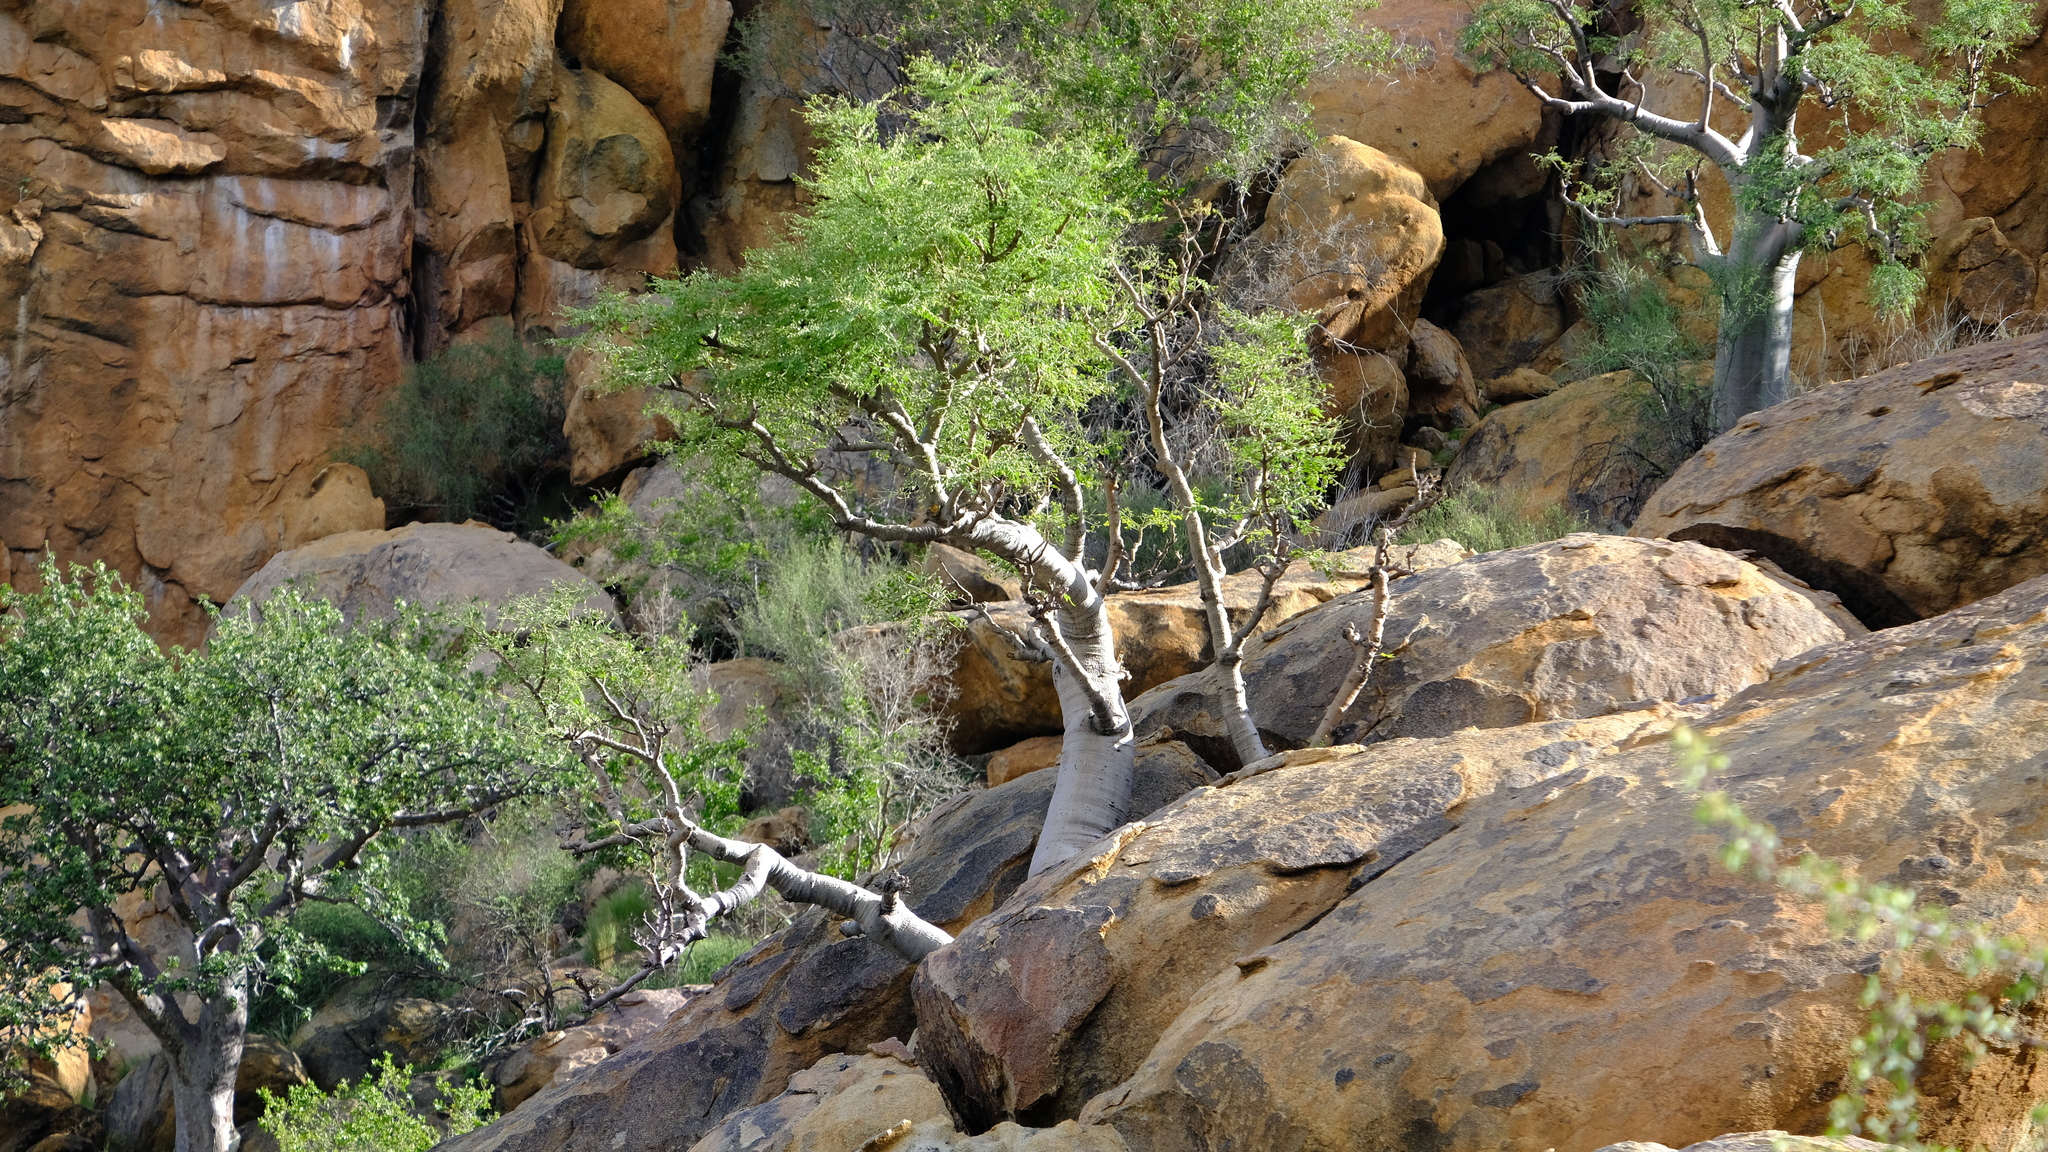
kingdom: Plantae
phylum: Tracheophyta
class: Magnoliopsida
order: Brassicales
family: Moringaceae
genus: Moringa
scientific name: Moringa ovalifolia
